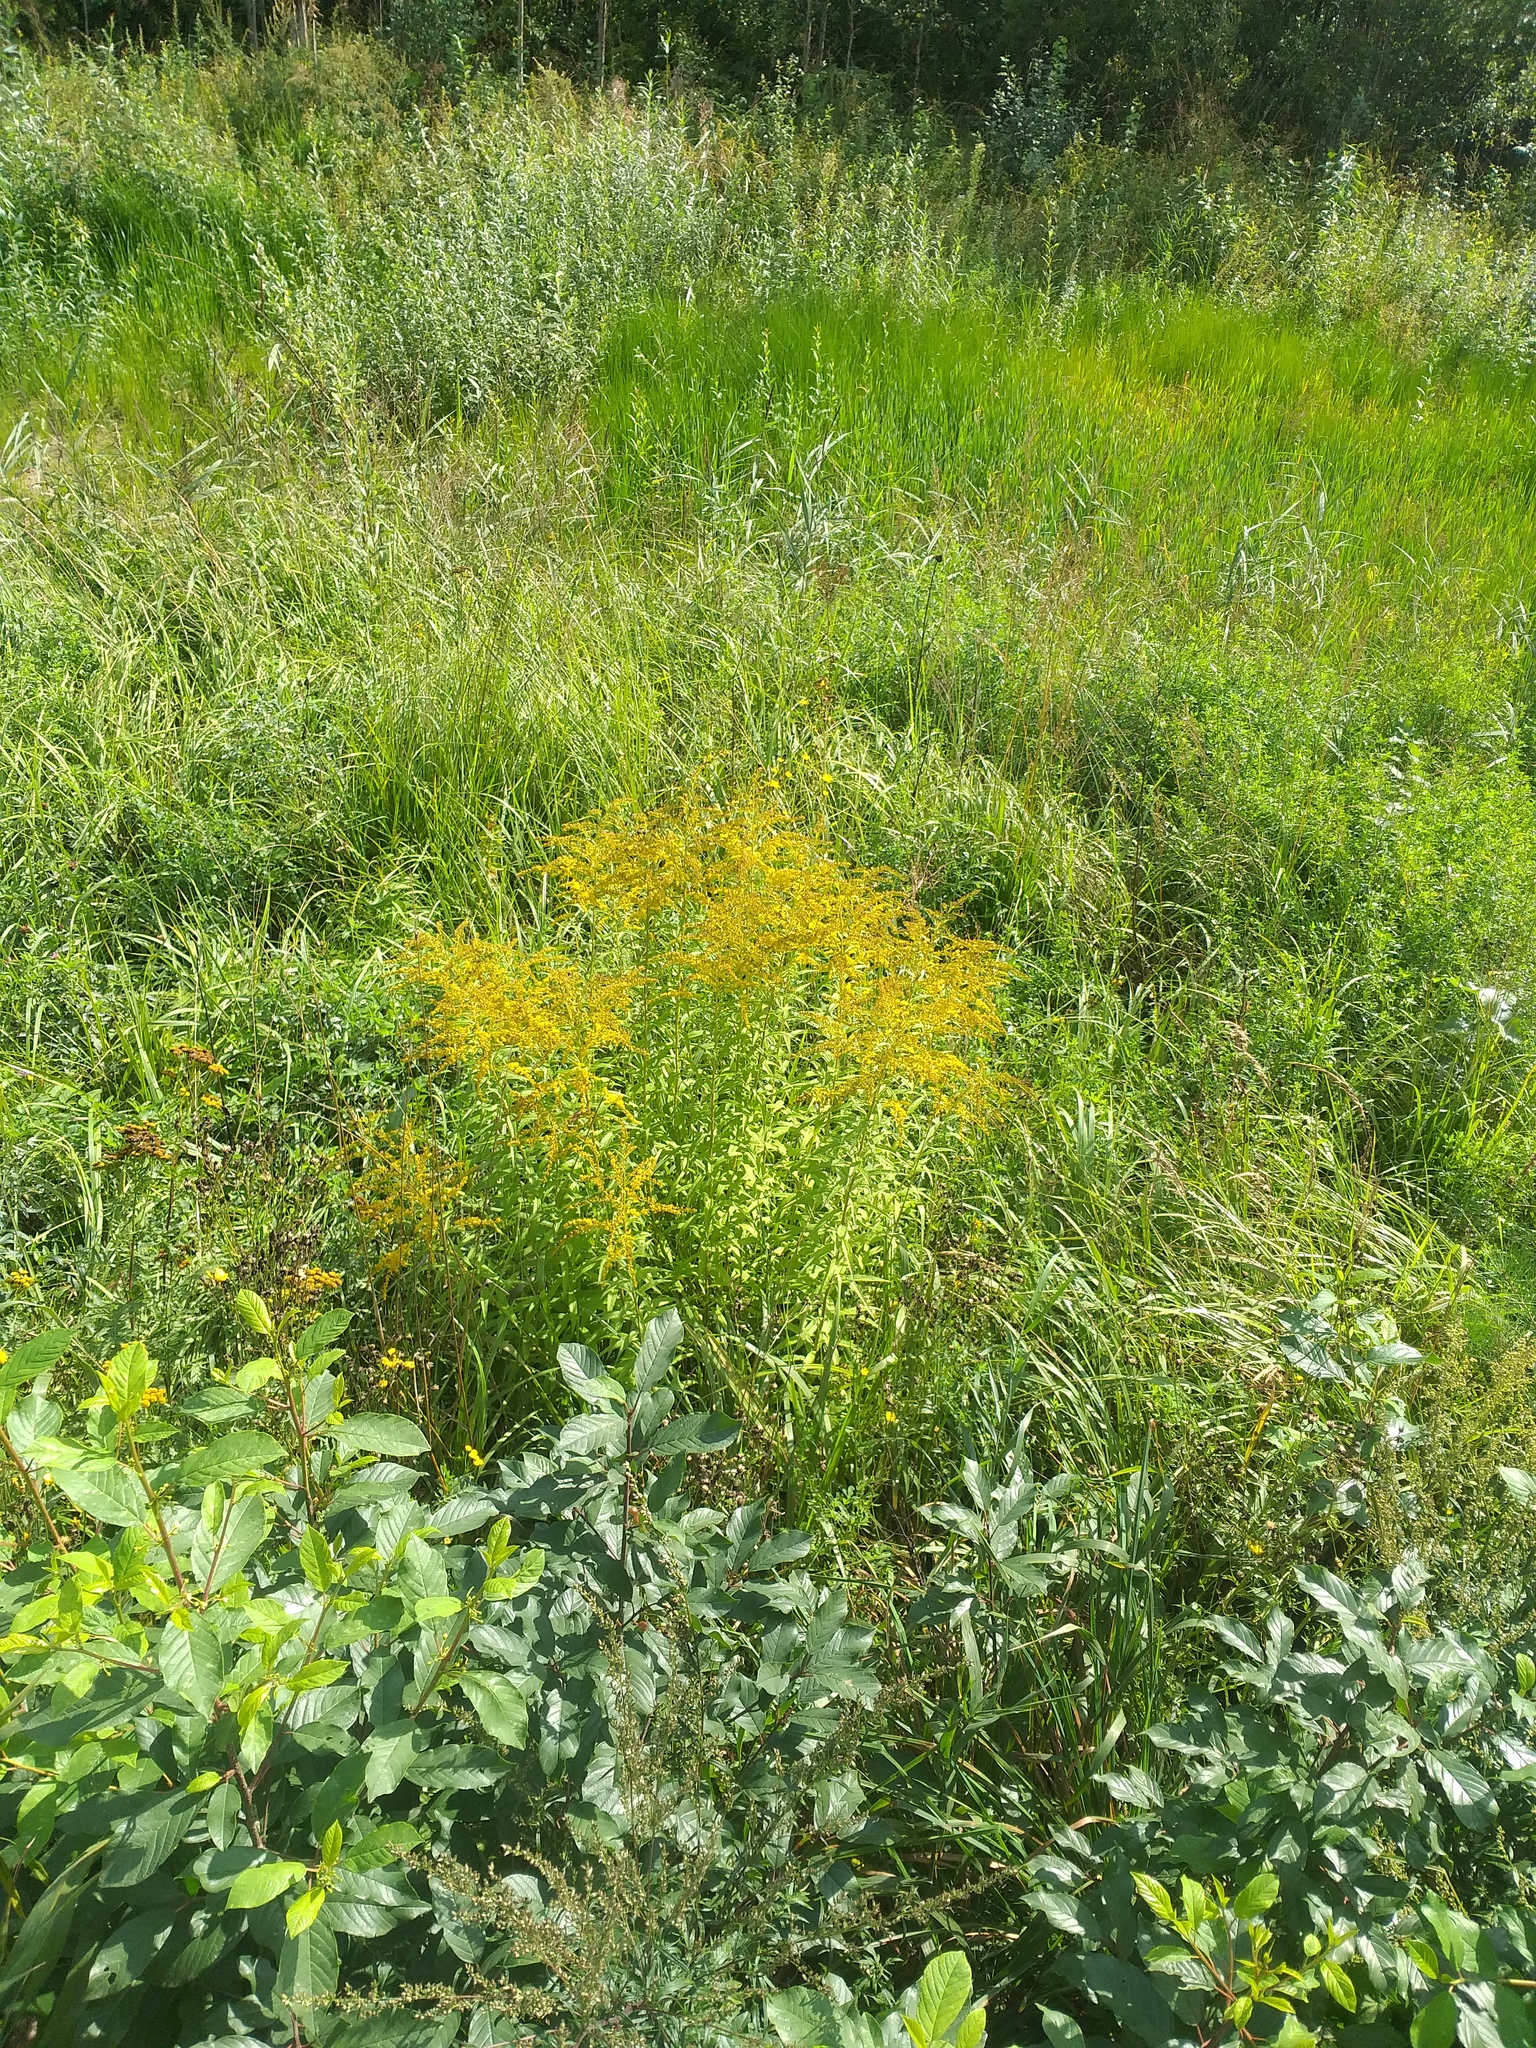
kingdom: Plantae
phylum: Tracheophyta
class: Magnoliopsida
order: Asterales
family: Asteraceae
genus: Solidago
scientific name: Solidago canadensis
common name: Canada goldenrod
